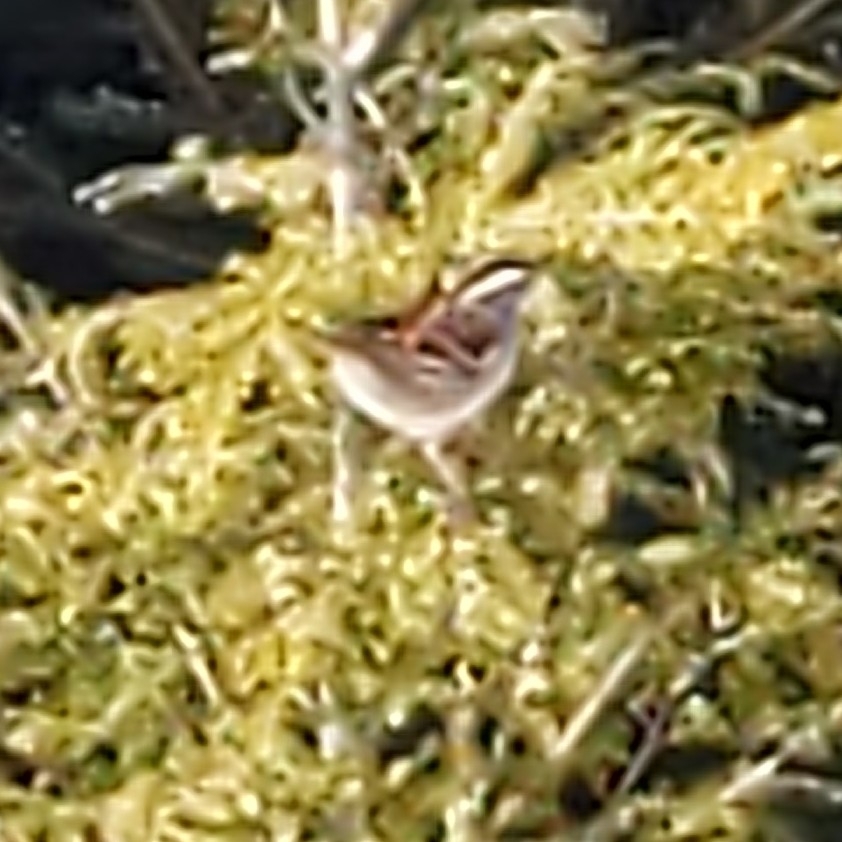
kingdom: Animalia
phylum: Chordata
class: Aves
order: Passeriformes
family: Passerellidae
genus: Zonotrichia
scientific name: Zonotrichia albicollis
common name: White-throated sparrow
